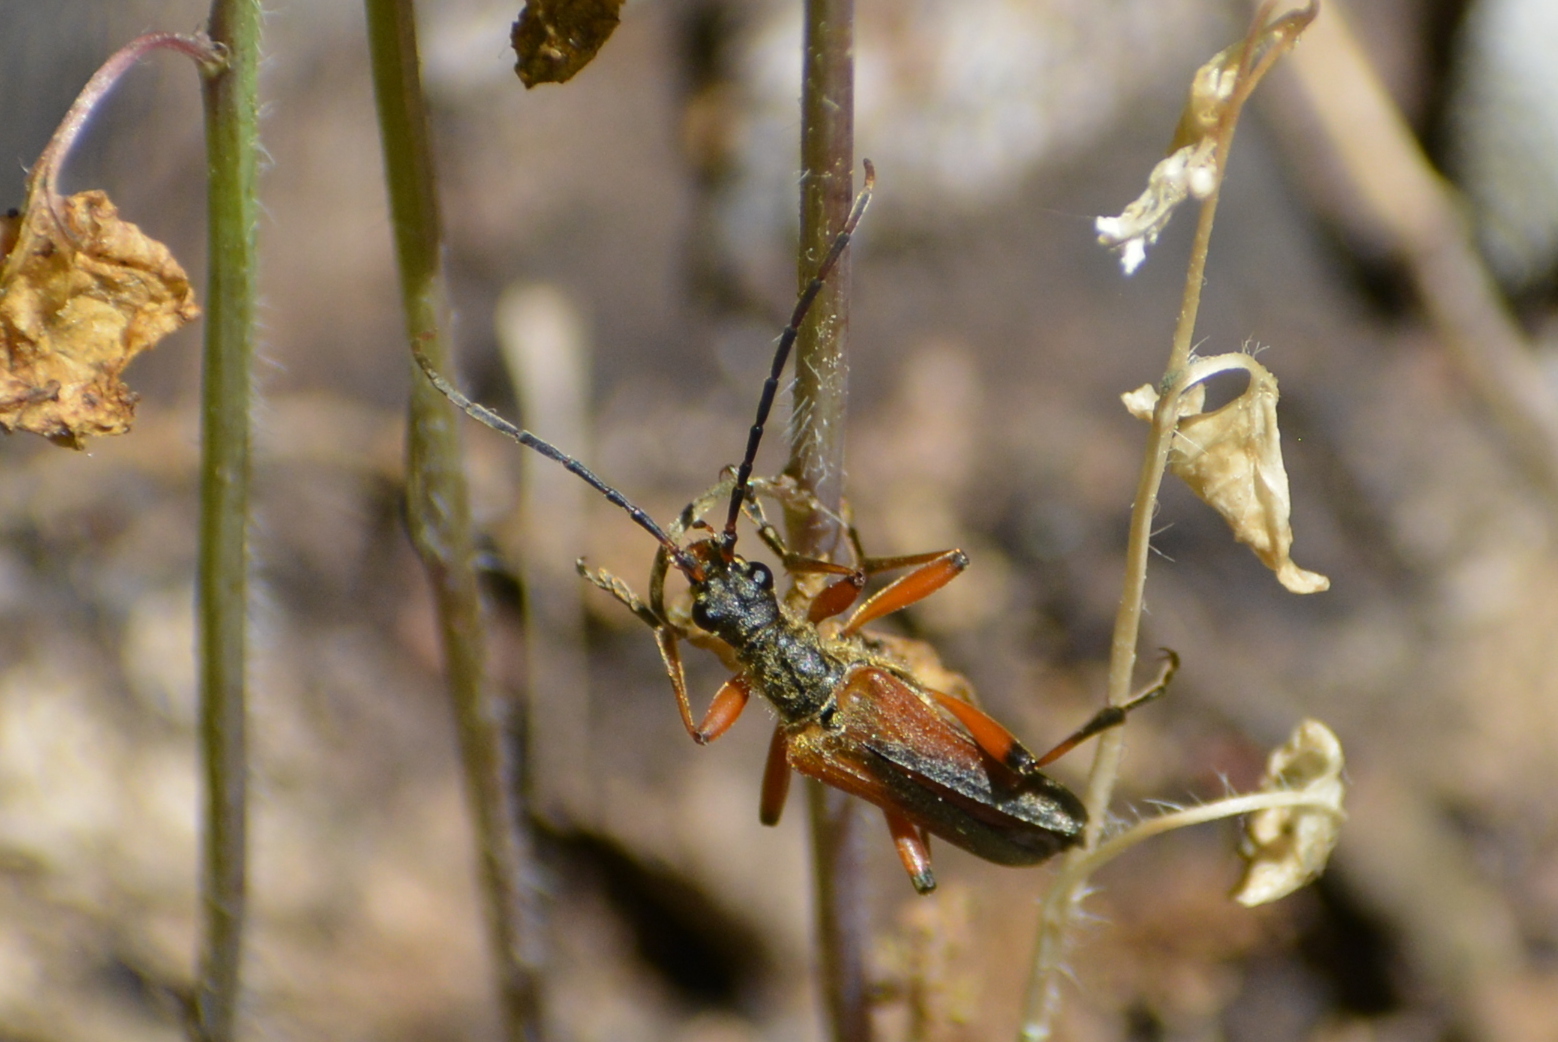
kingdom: Animalia
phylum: Arthropoda
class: Insecta
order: Coleoptera
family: Cerambycidae
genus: Stenocorus
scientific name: Stenocorus meridianus
